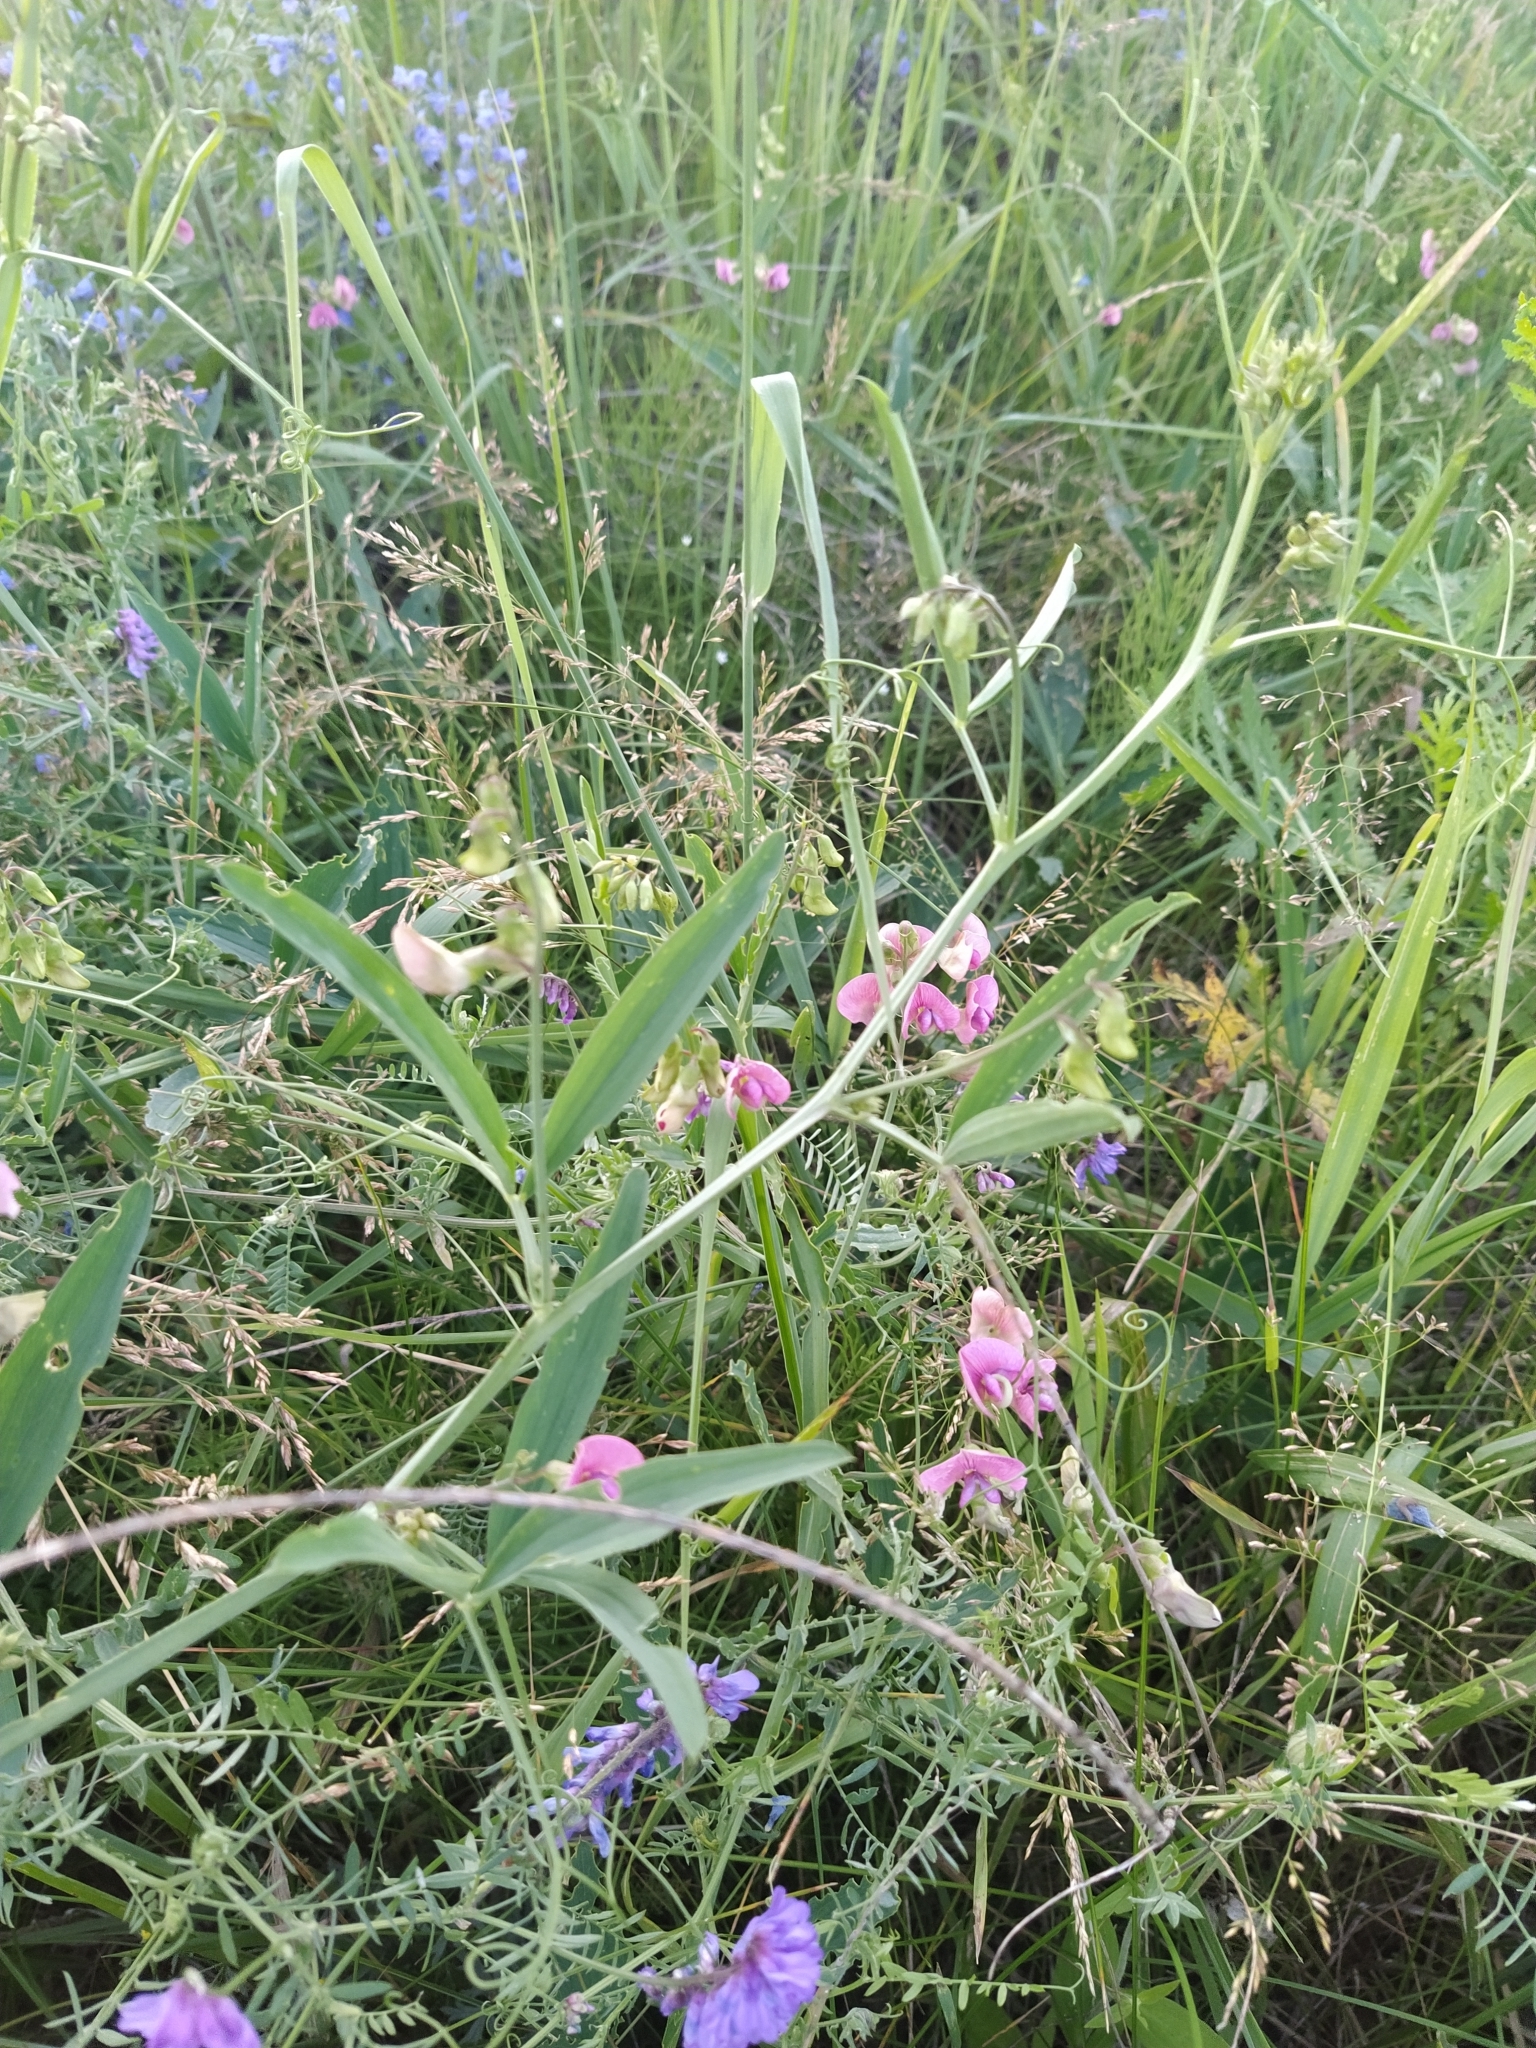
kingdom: Plantae
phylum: Tracheophyta
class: Magnoliopsida
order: Fabales
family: Fabaceae
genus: Lathyrus
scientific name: Lathyrus sylvestris
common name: Flat pea
